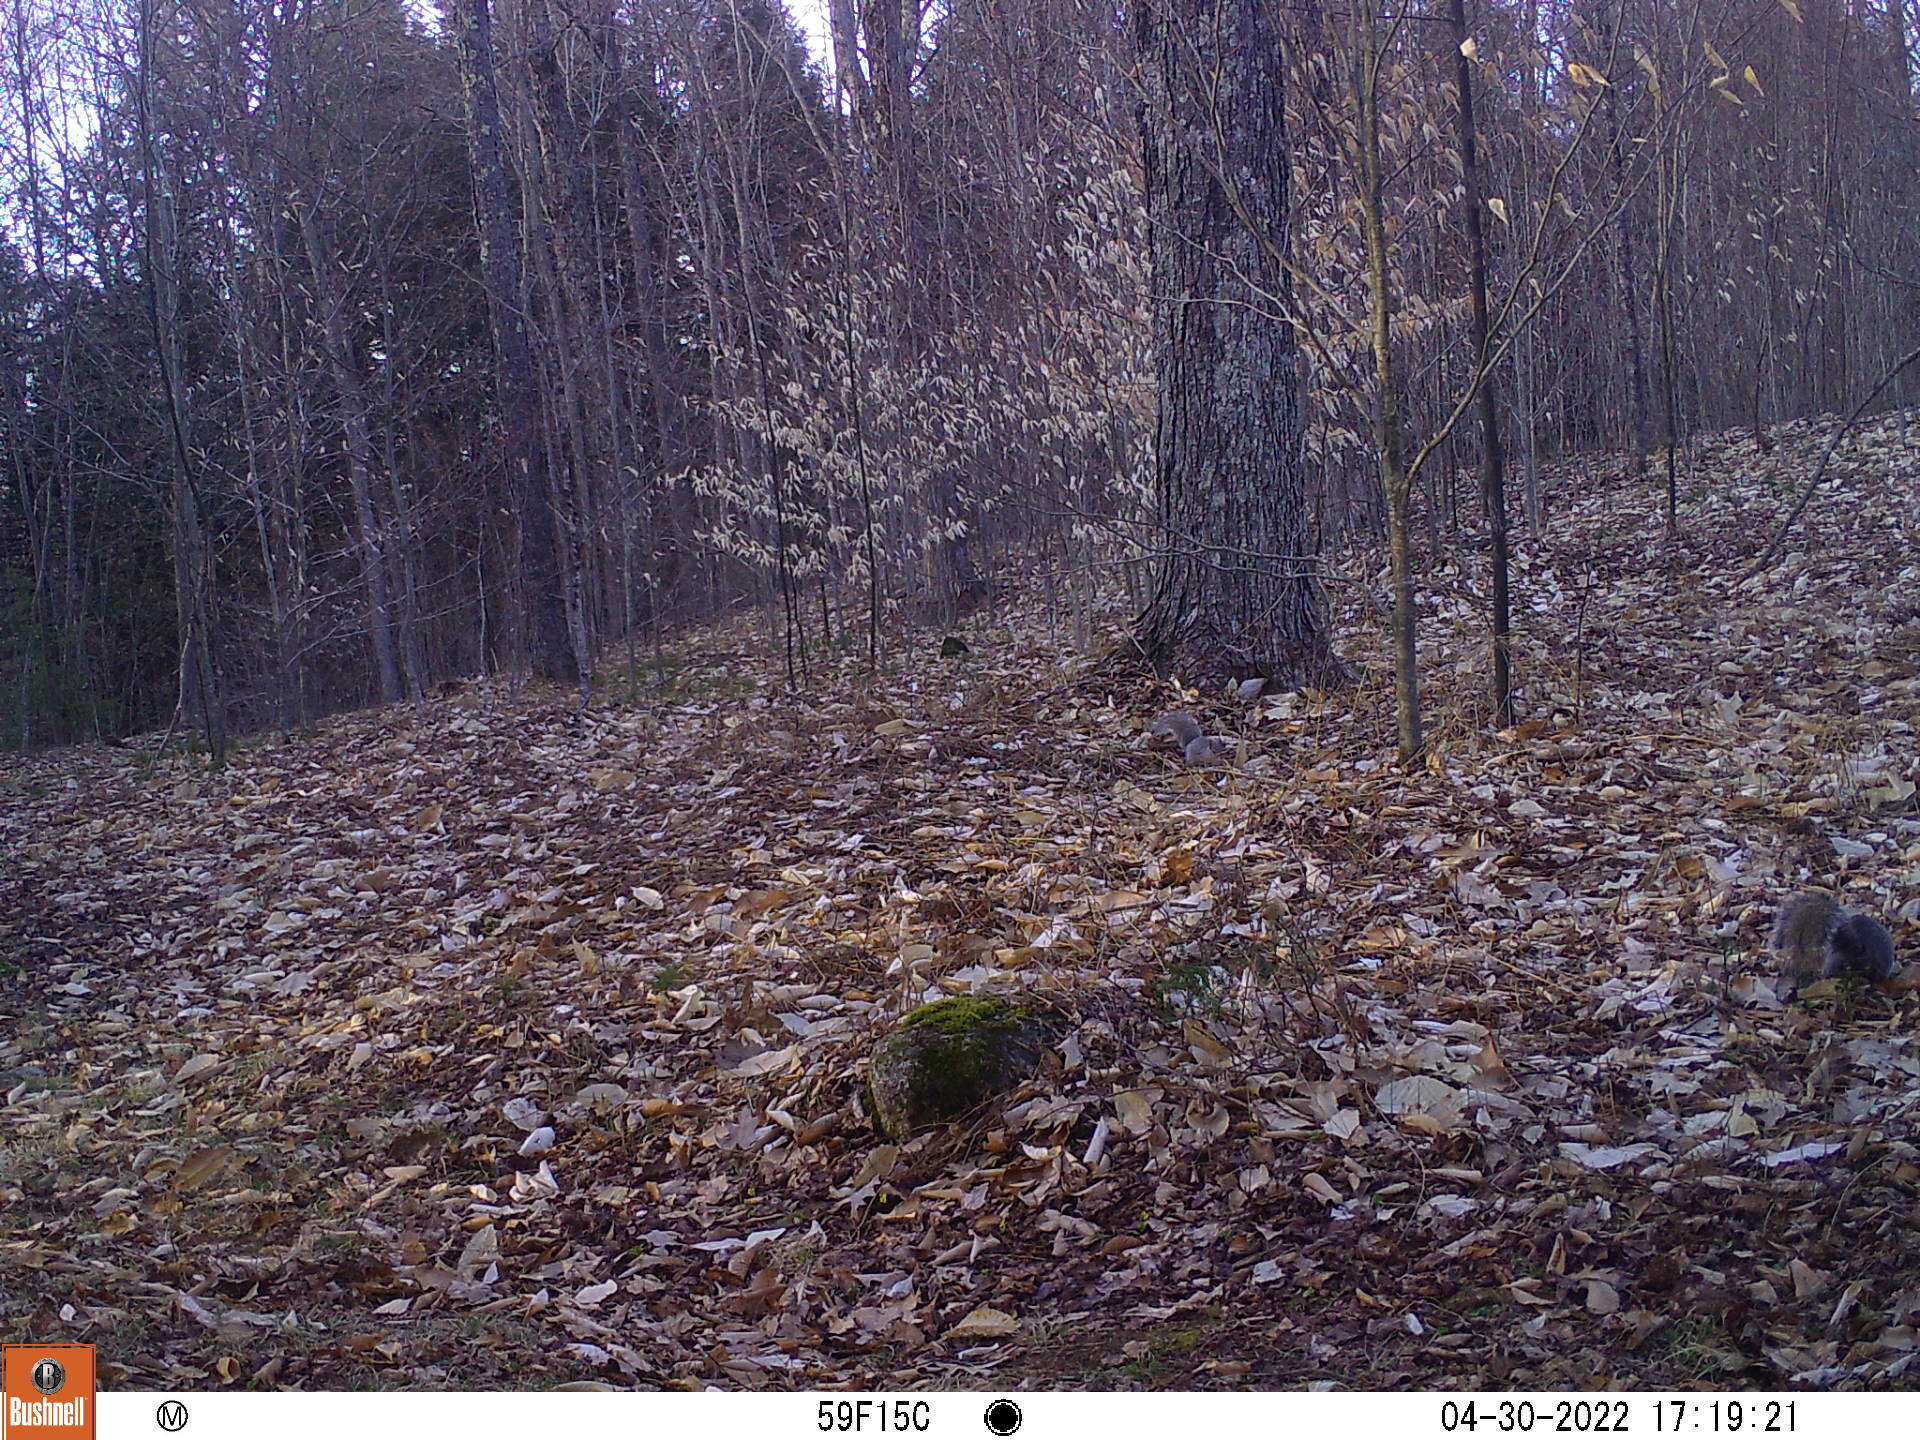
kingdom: Animalia
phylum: Chordata
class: Mammalia
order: Rodentia
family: Sciuridae
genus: Sciurus
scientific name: Sciurus carolinensis
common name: Eastern gray squirrel
